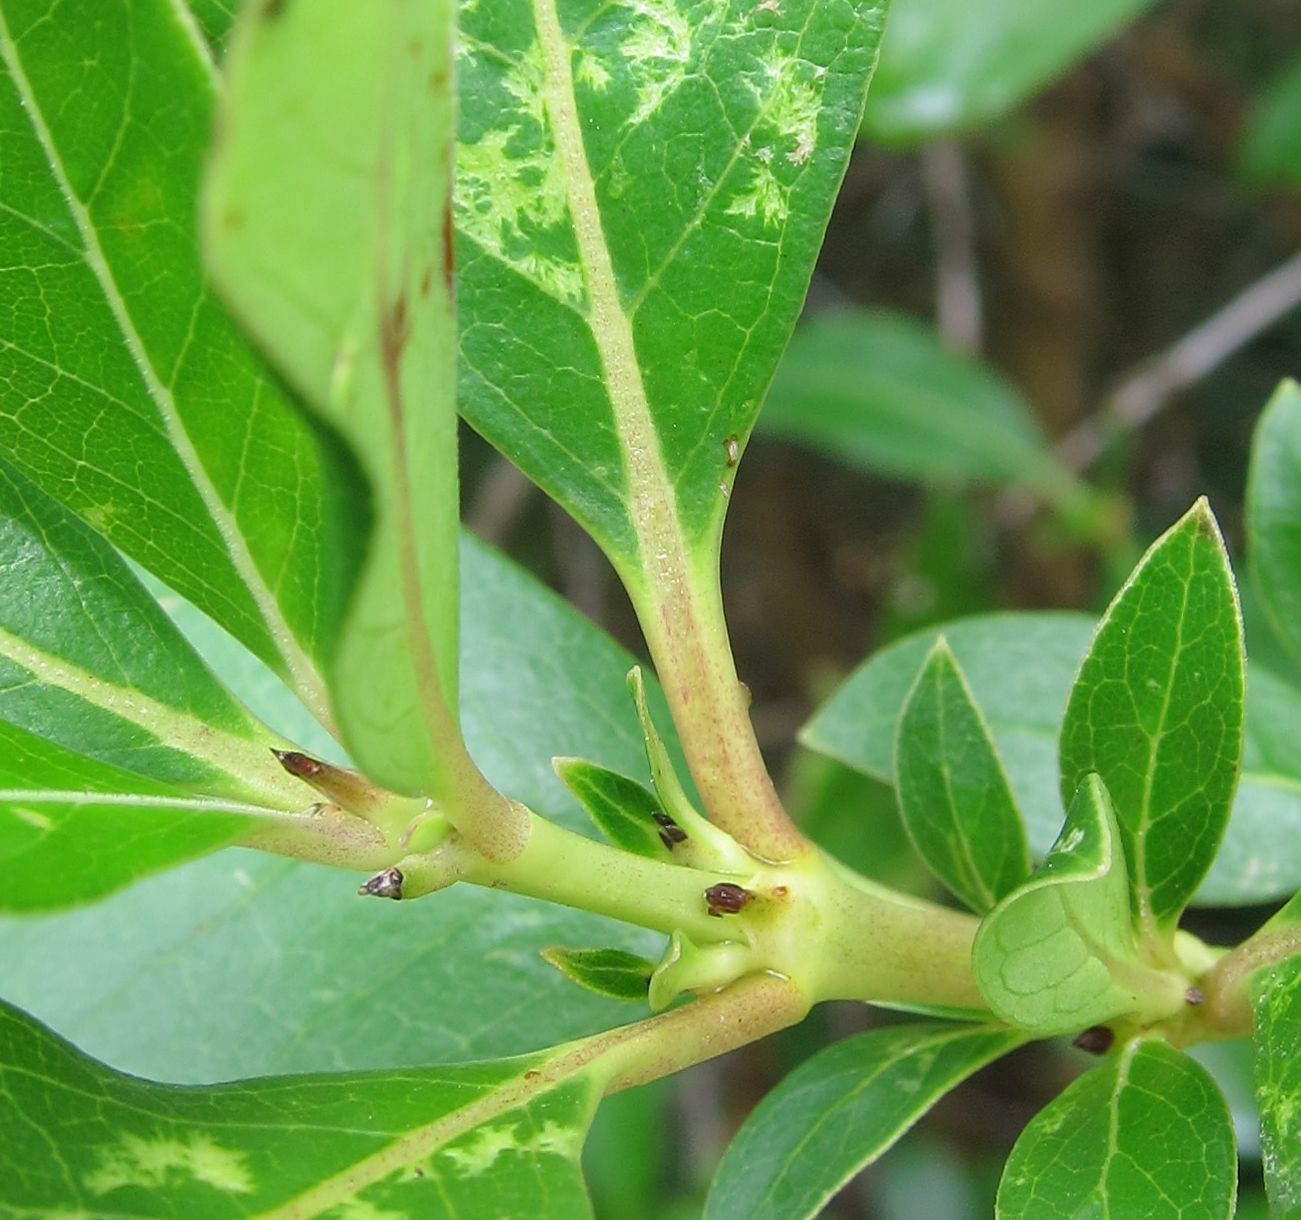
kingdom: Plantae
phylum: Tracheophyta
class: Magnoliopsida
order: Gentianales
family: Rubiaceae
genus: Coprosma
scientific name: Coprosma robusta
